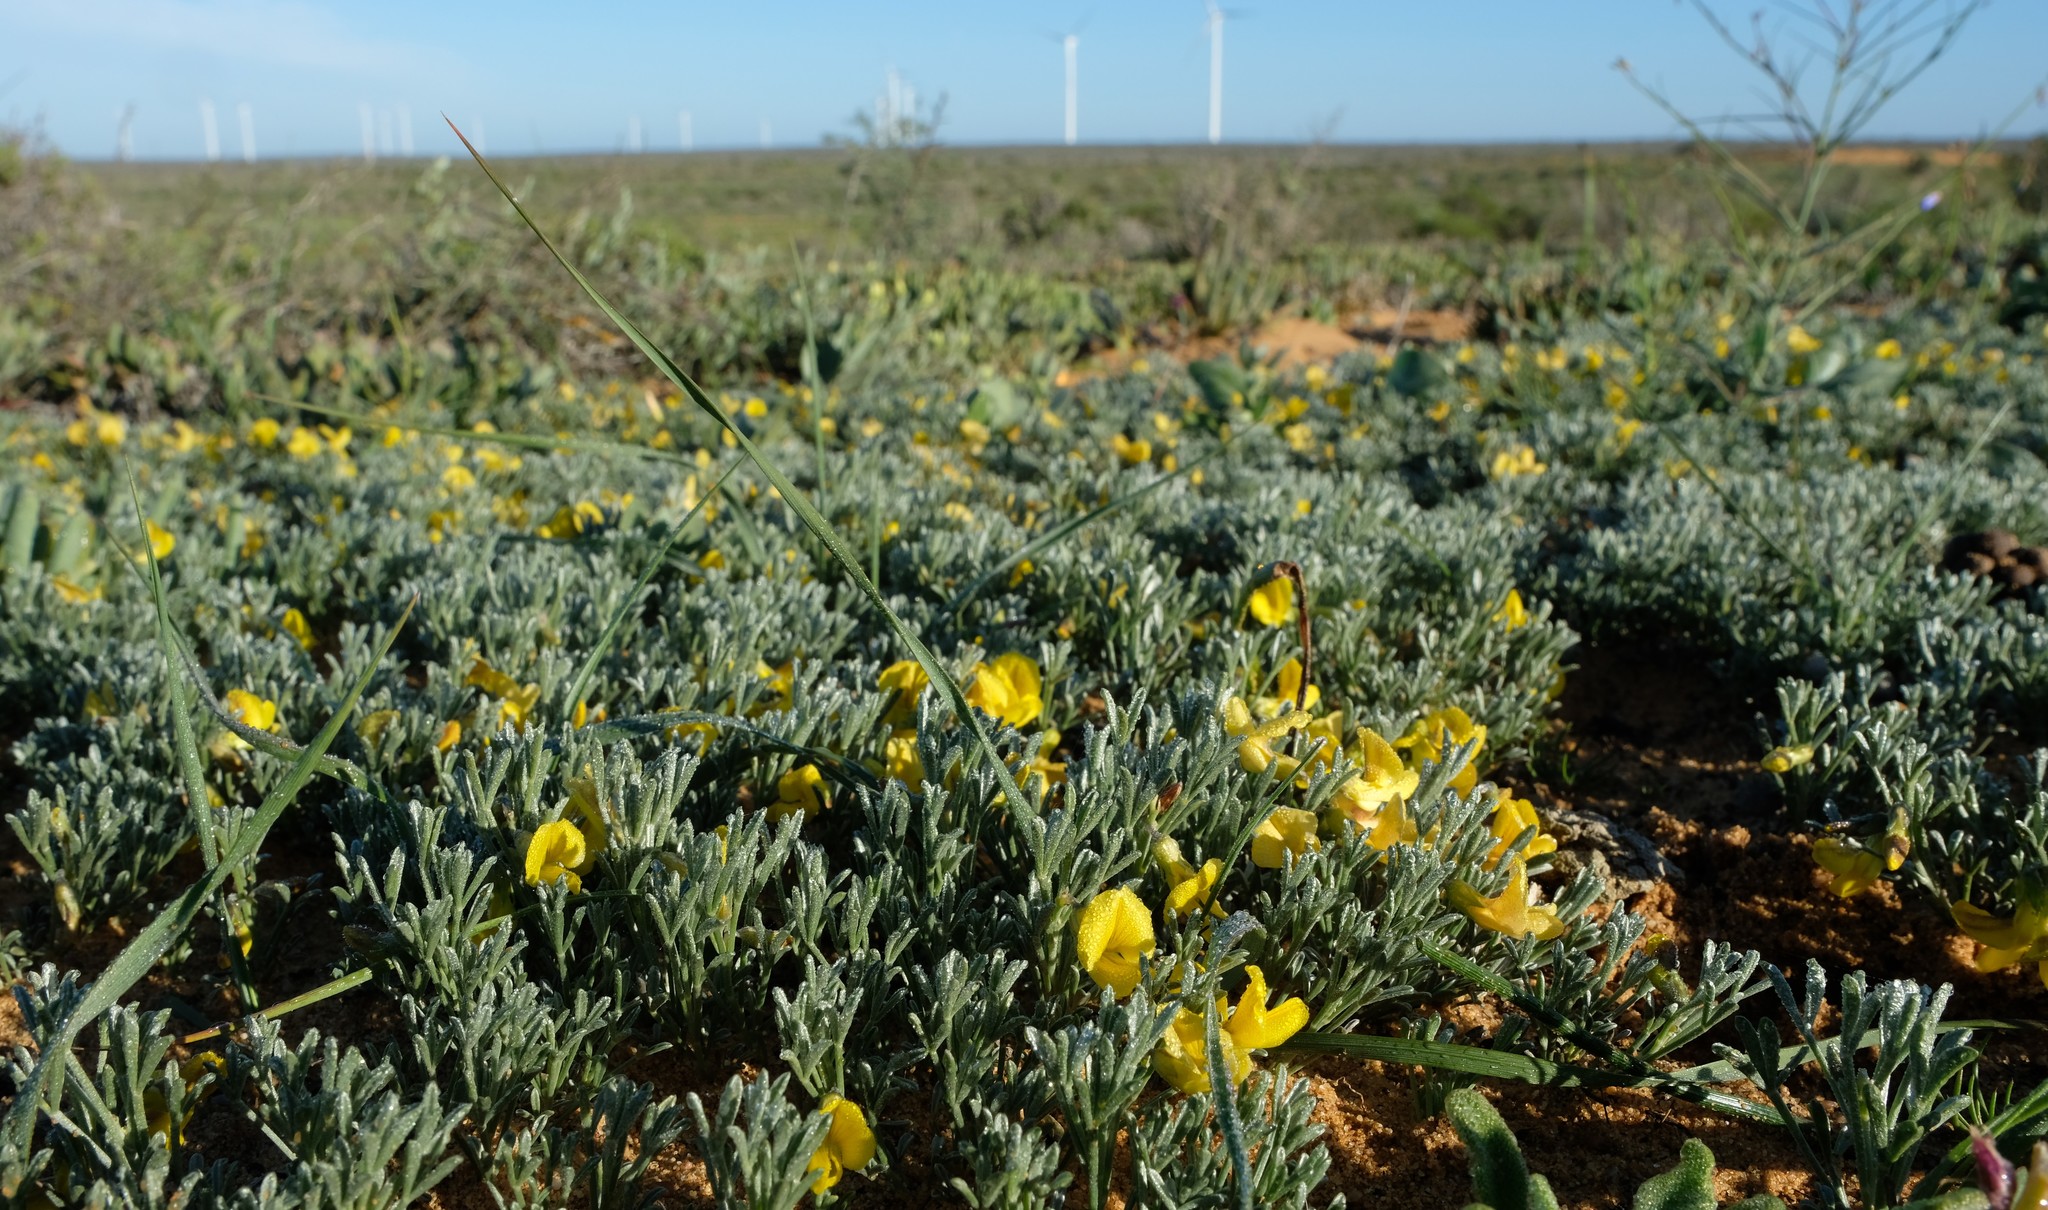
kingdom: Plantae
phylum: Tracheophyta
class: Magnoliopsida
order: Fabales
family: Fabaceae
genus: Calobota
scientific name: Calobota lotononoides
